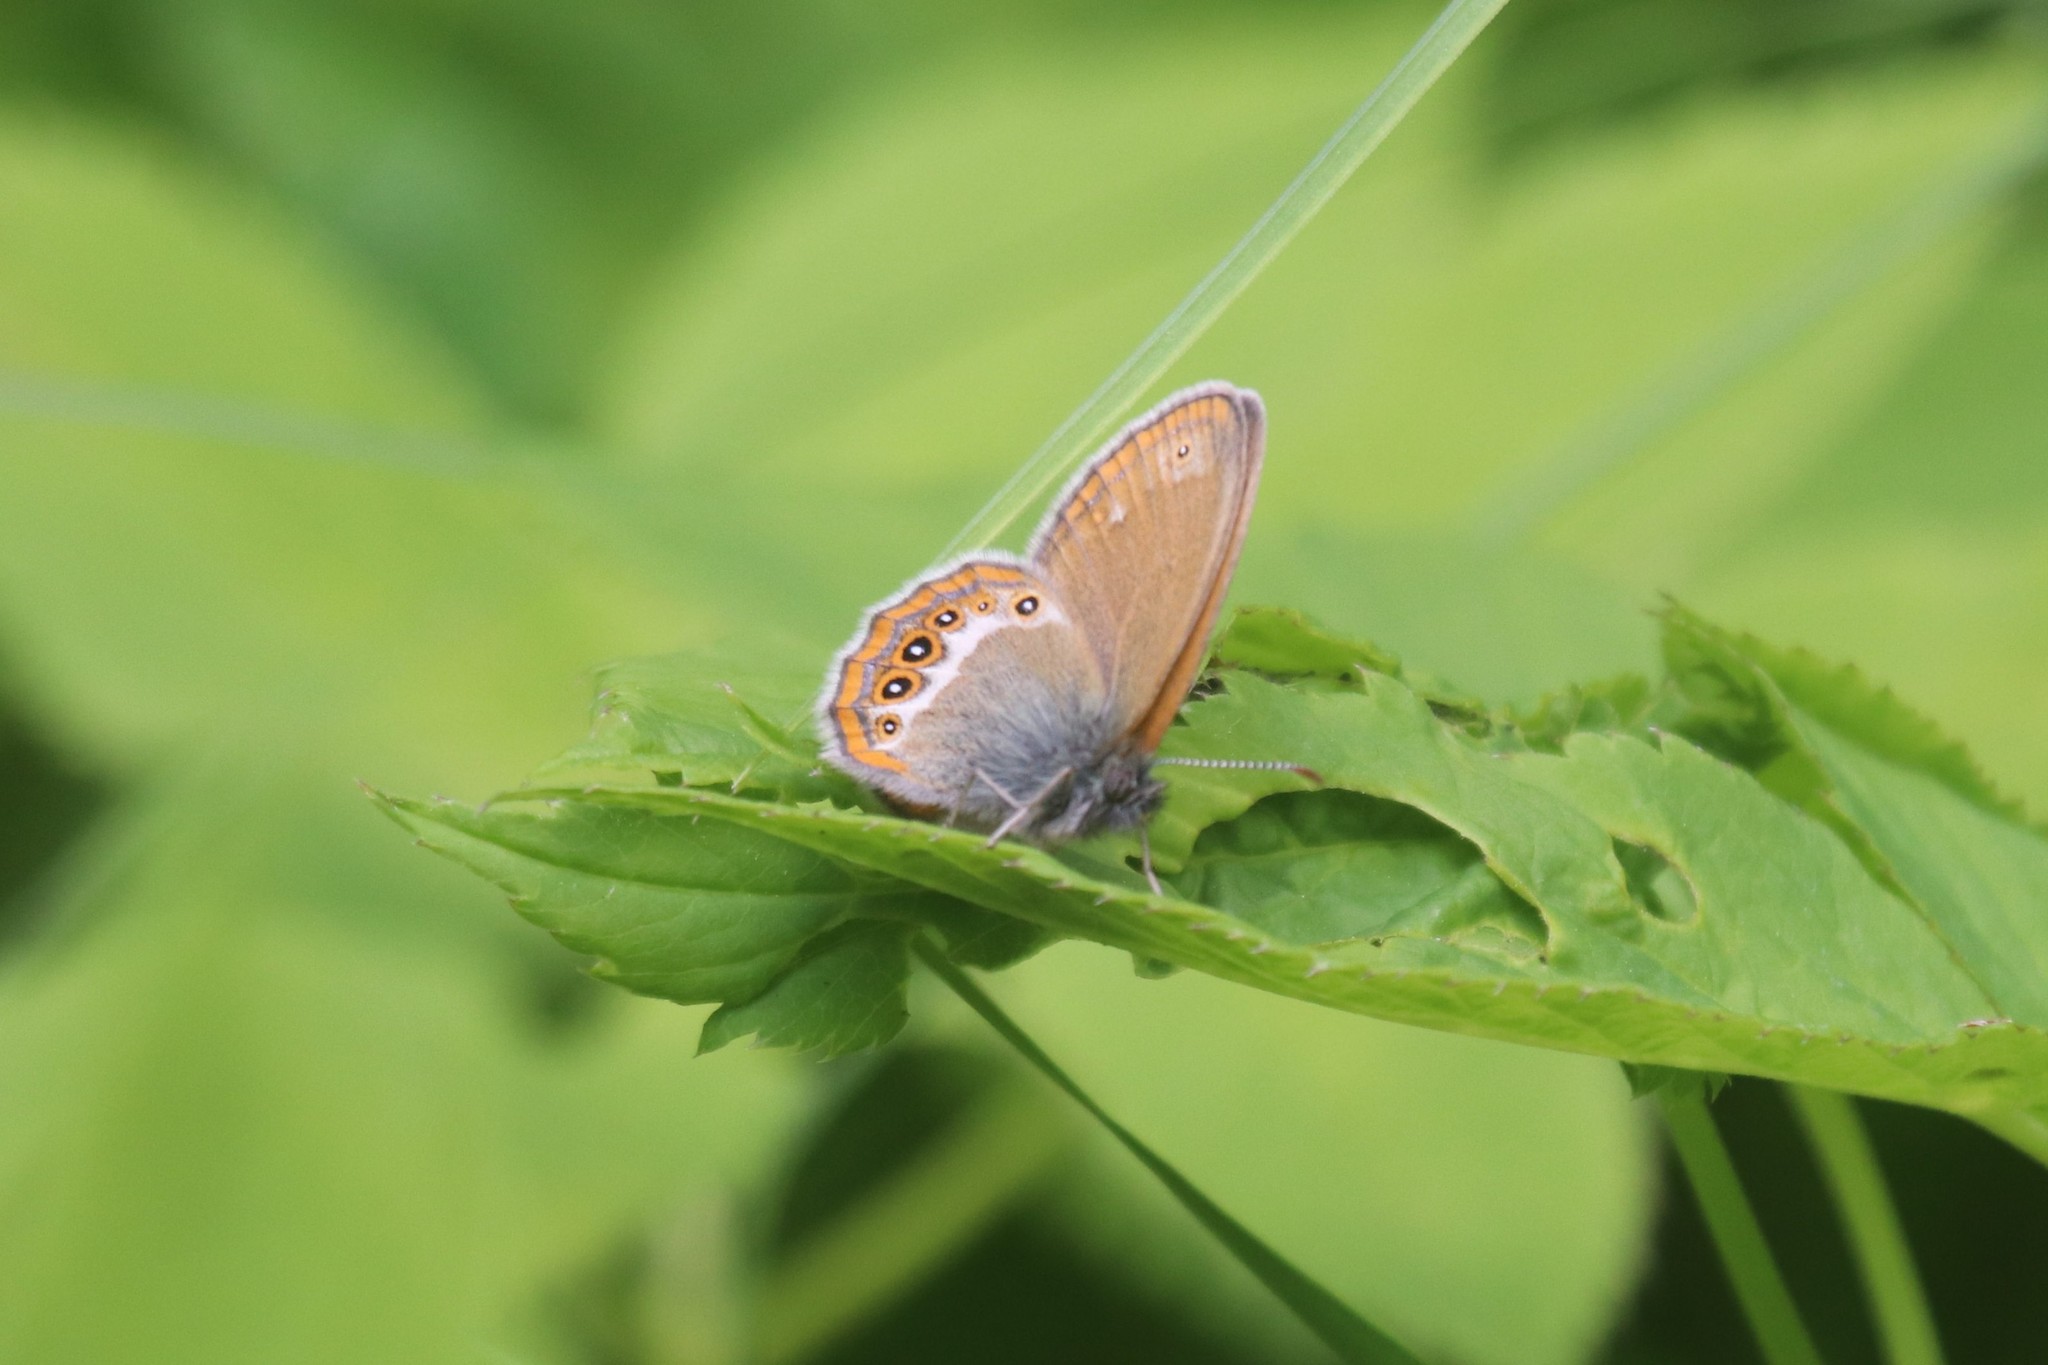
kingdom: Animalia
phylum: Arthropoda
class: Insecta
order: Lepidoptera
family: Nymphalidae
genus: Coenonympha
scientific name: Coenonympha hero
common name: Scarce heath
